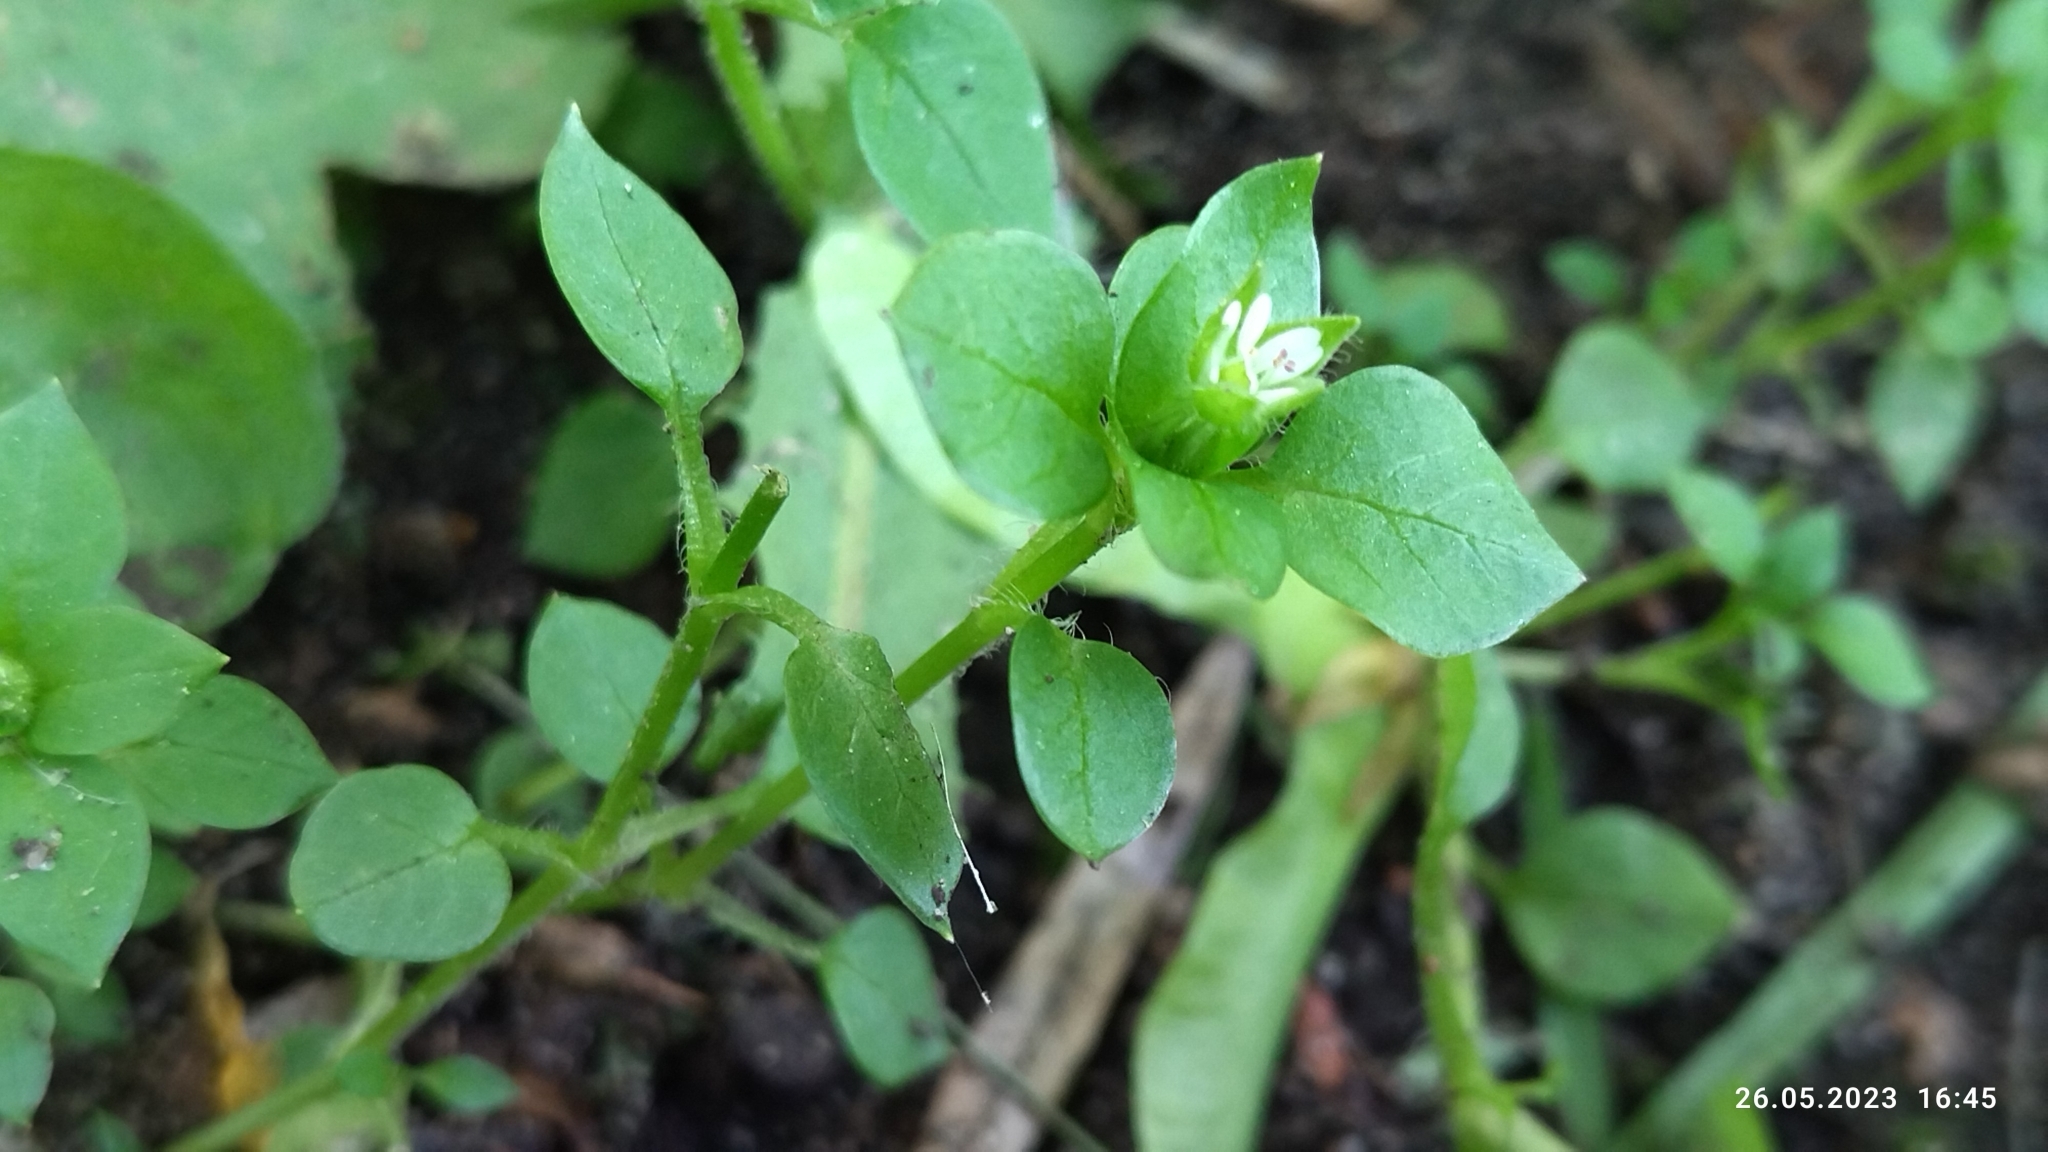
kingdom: Plantae
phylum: Tracheophyta
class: Magnoliopsida
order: Caryophyllales
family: Caryophyllaceae
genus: Stellaria
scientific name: Stellaria media
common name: Common chickweed
